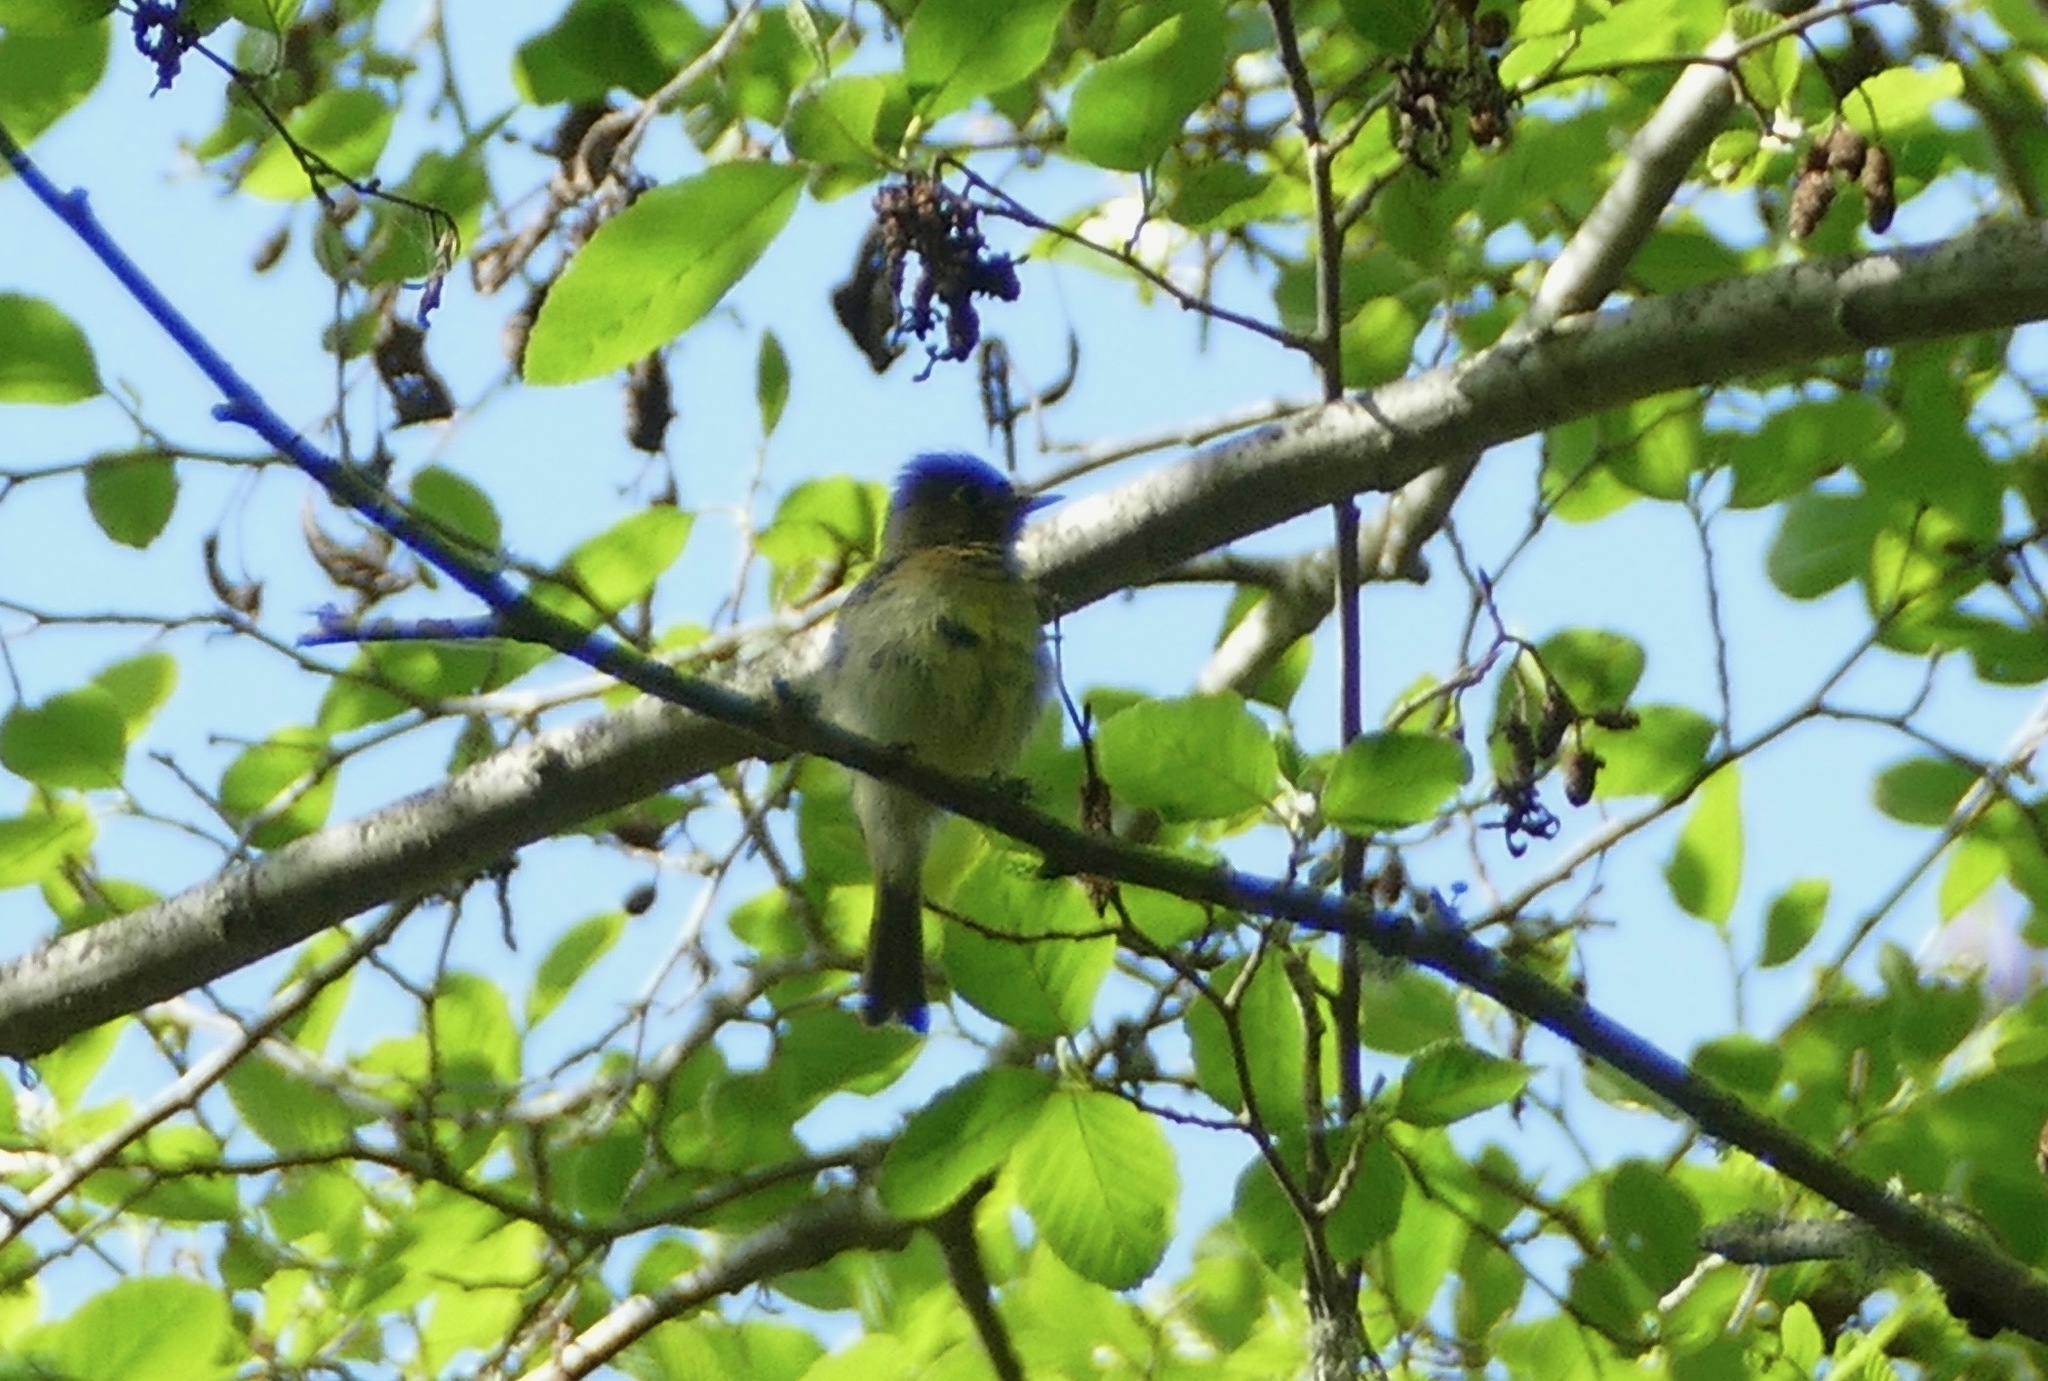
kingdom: Animalia
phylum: Chordata
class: Aves
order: Passeriformes
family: Tyrannidae
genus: Empidonax
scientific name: Empidonax difficilis
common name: Pacific-slope flycatcher
